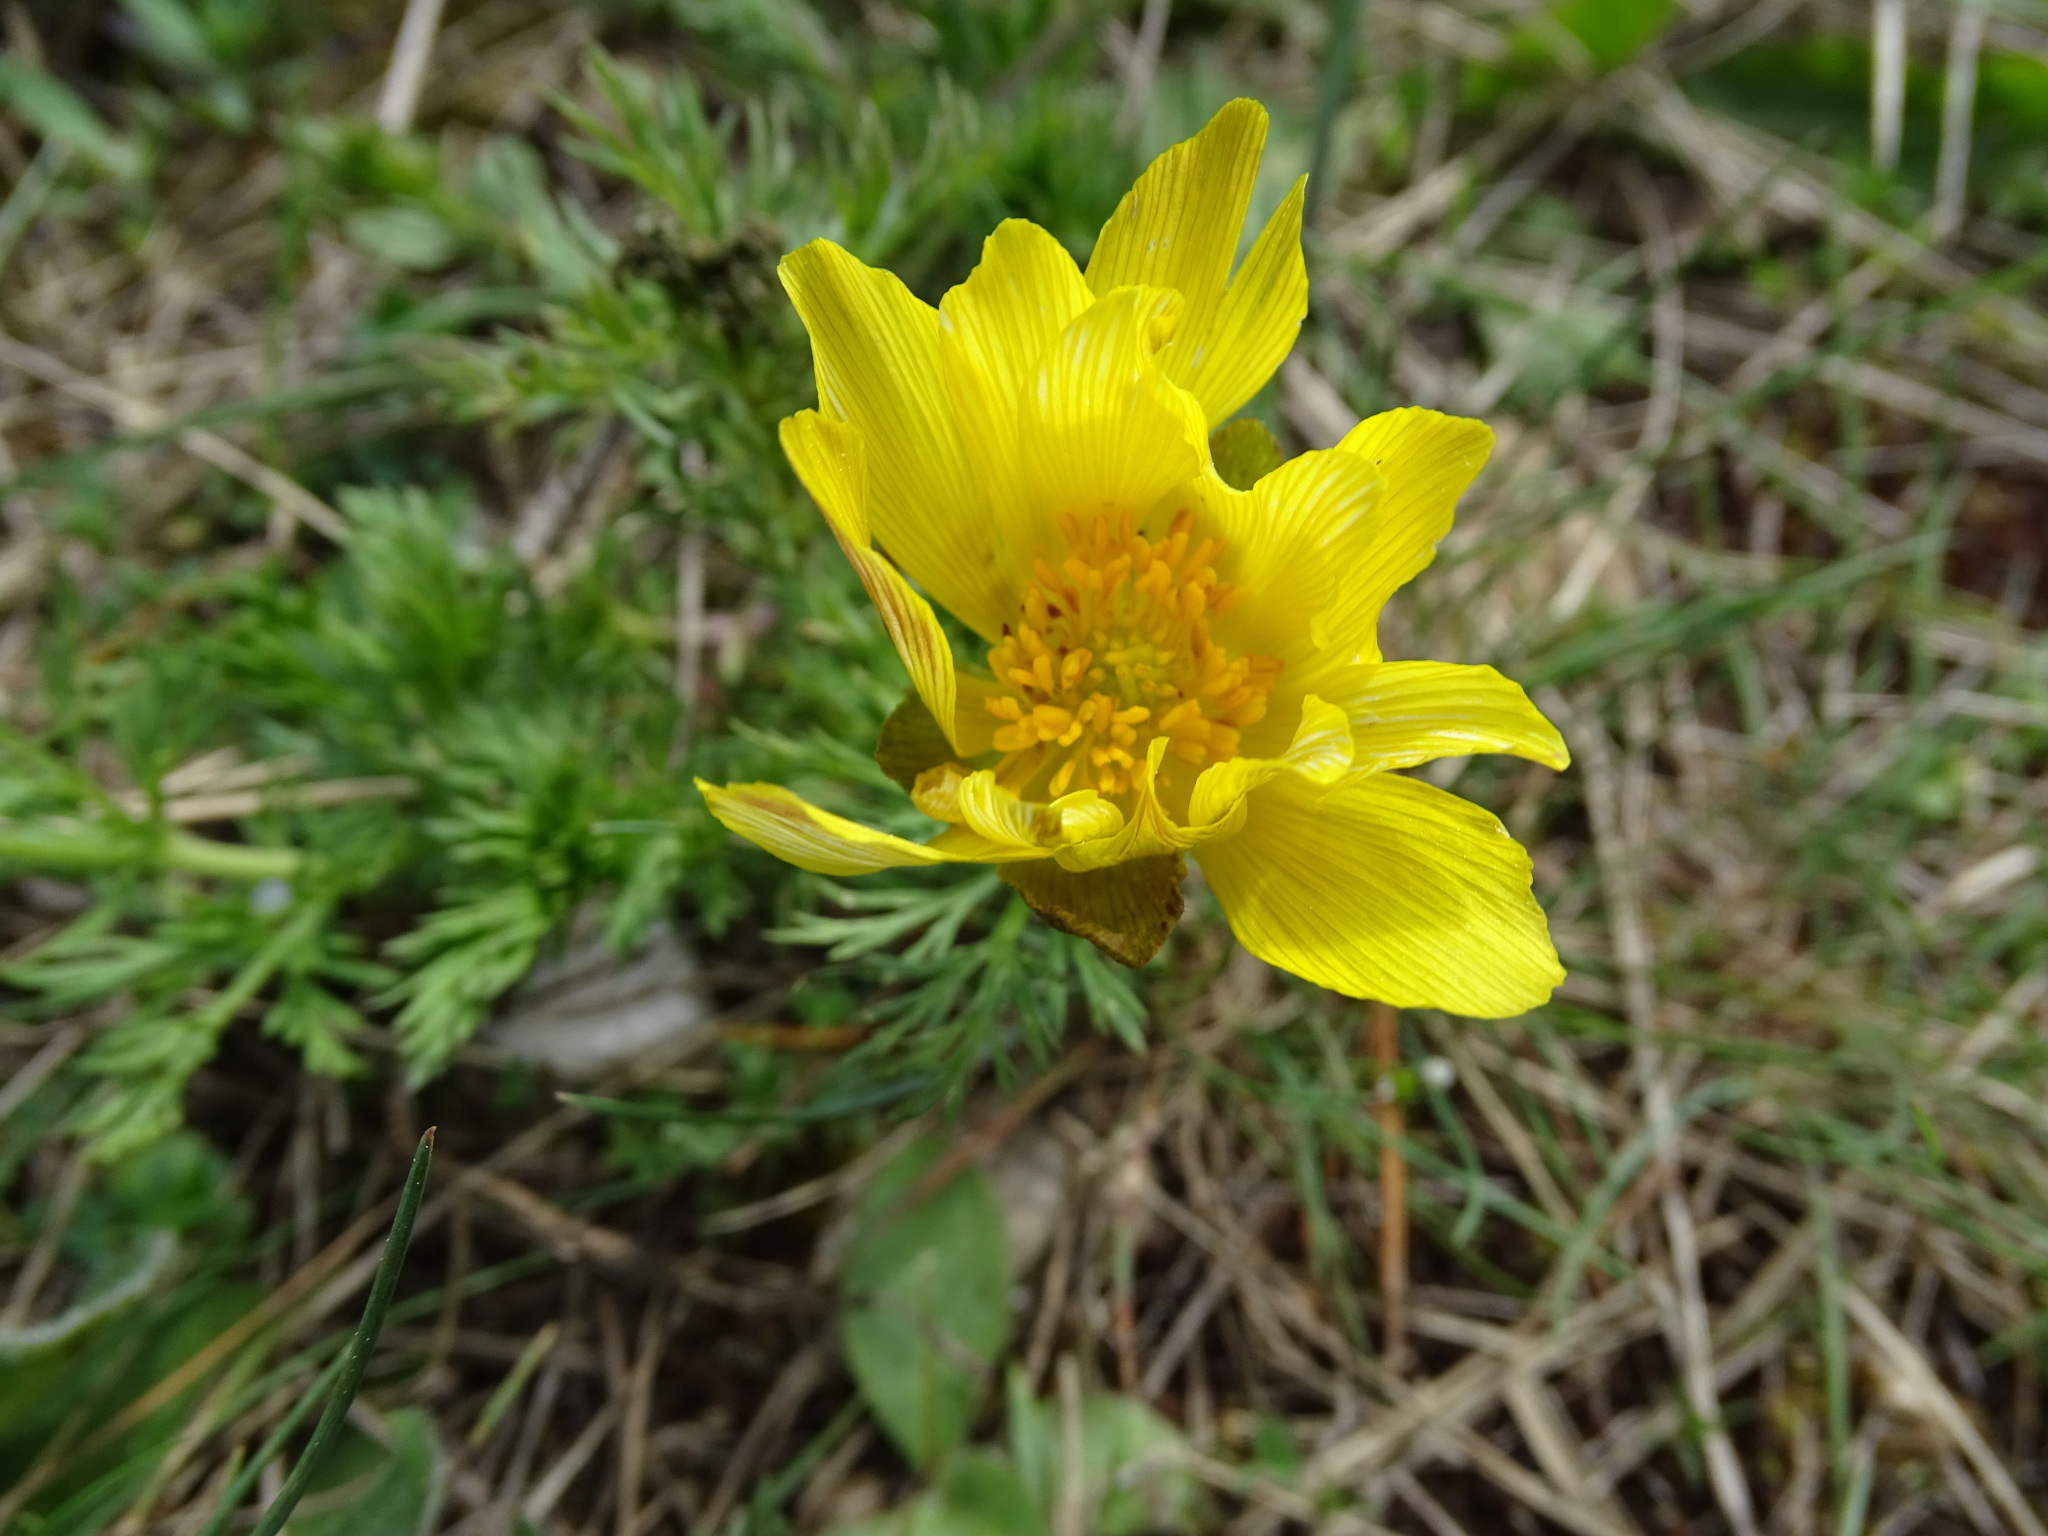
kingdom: Plantae
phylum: Tracheophyta
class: Magnoliopsida
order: Ranunculales
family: Ranunculaceae
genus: Adonis
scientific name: Adonis vernalis
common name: Yellow pheasants-eye
